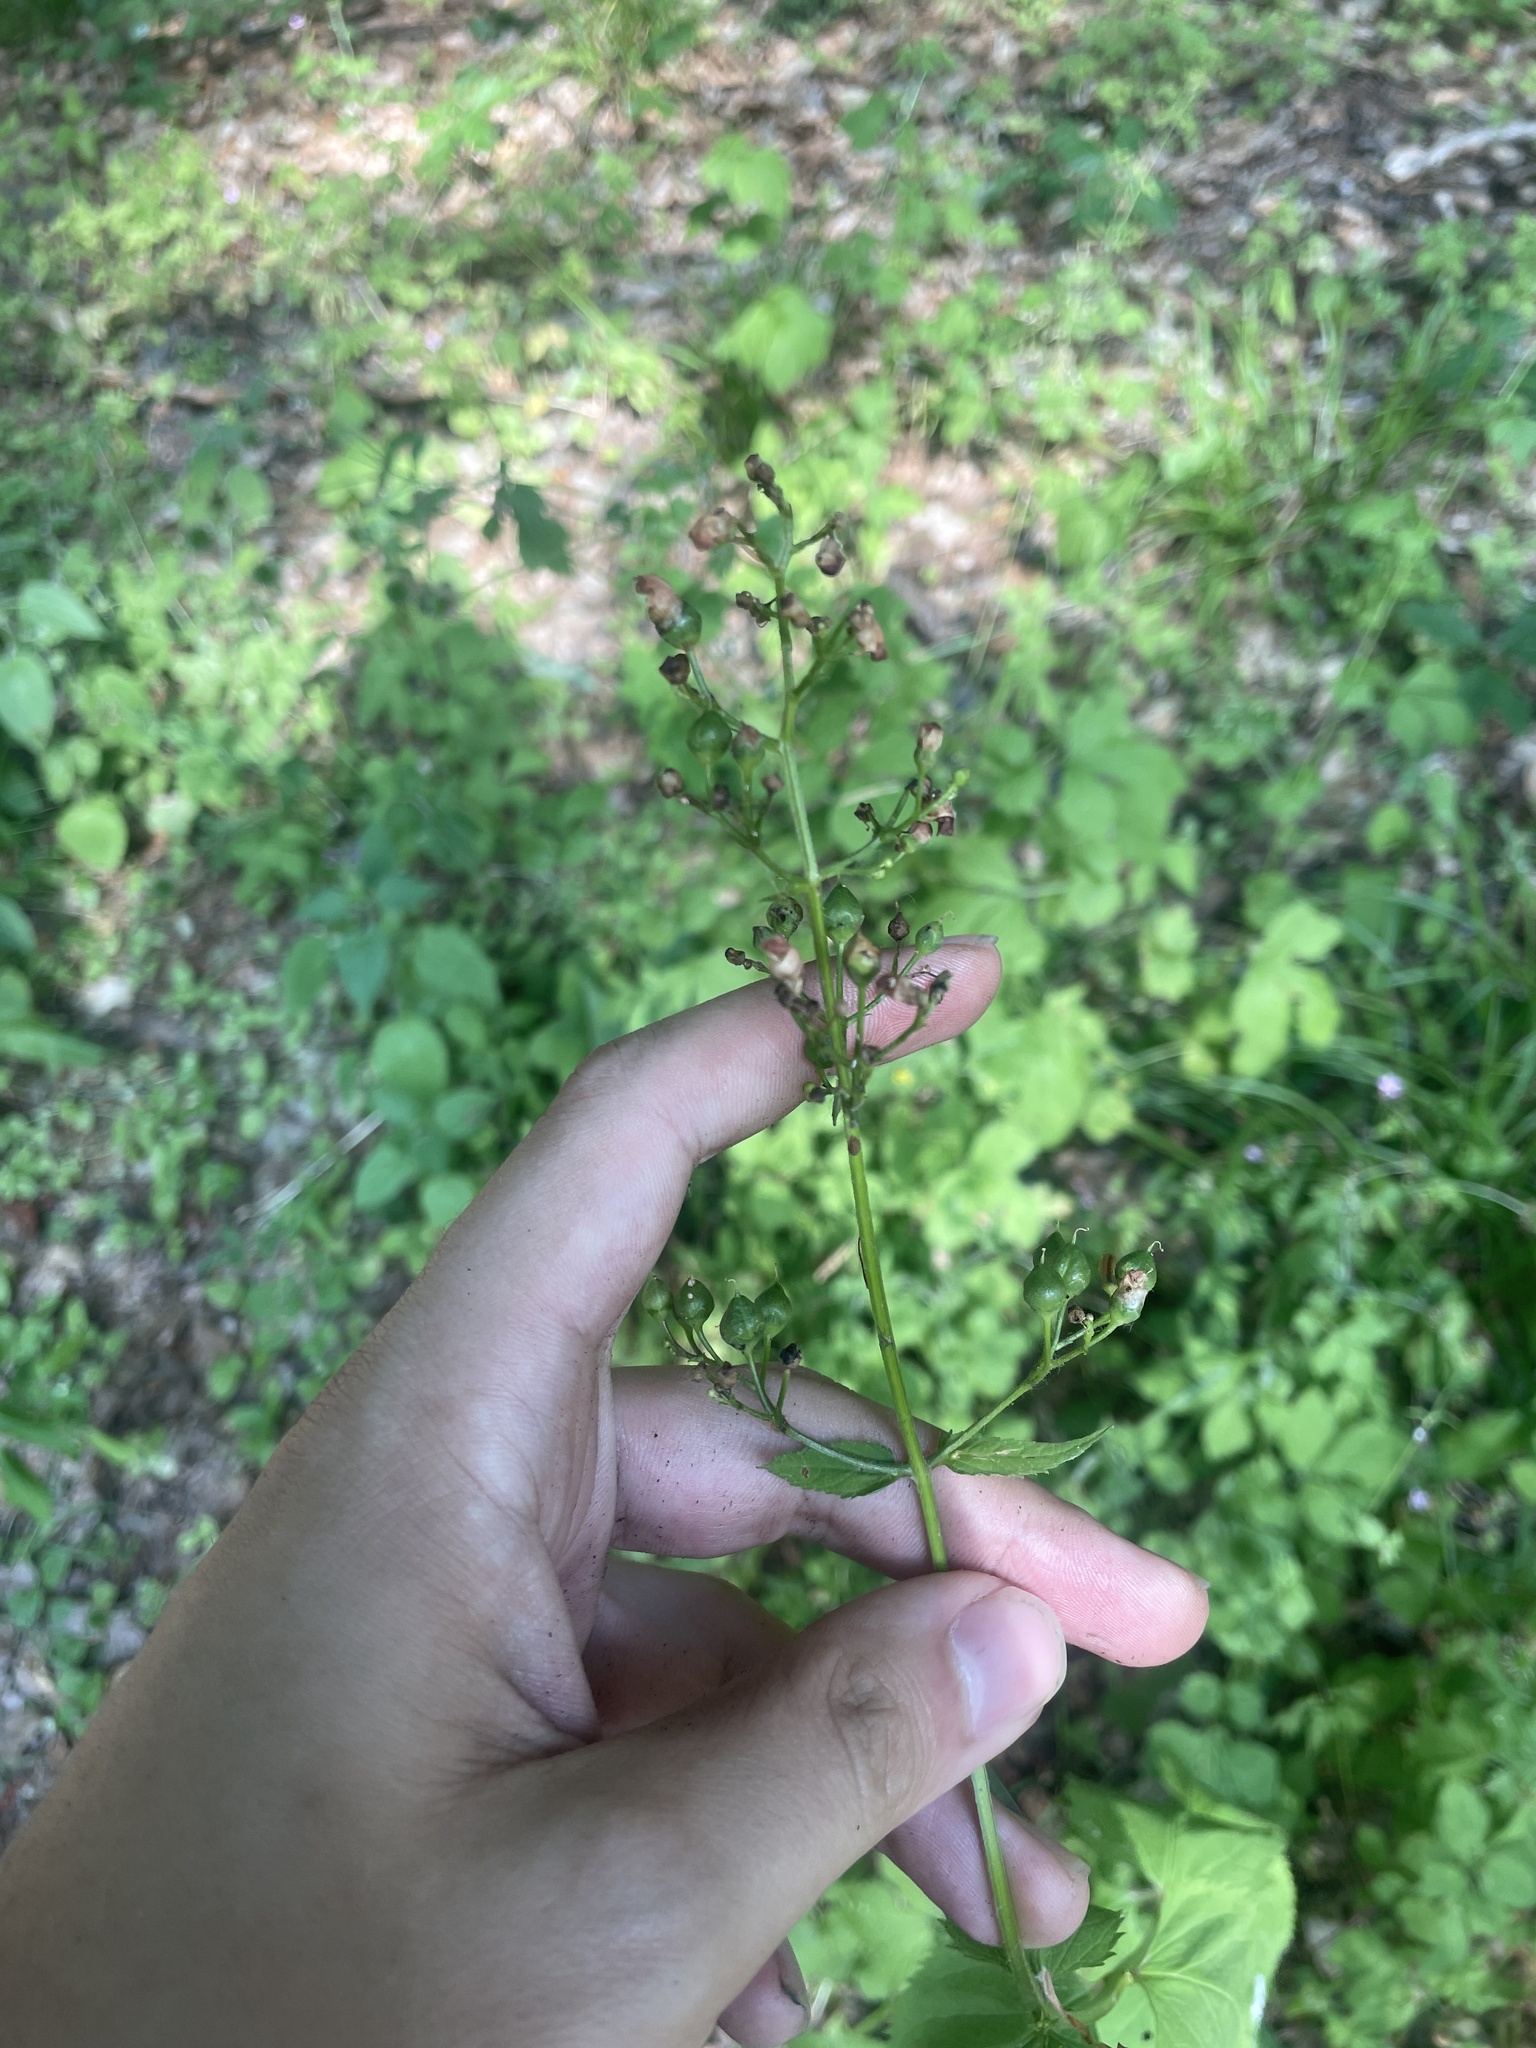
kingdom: Plantae
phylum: Tracheophyta
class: Magnoliopsida
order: Lamiales
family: Scrophulariaceae
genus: Scrophularia
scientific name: Scrophularia nodosa
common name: Common figwort
